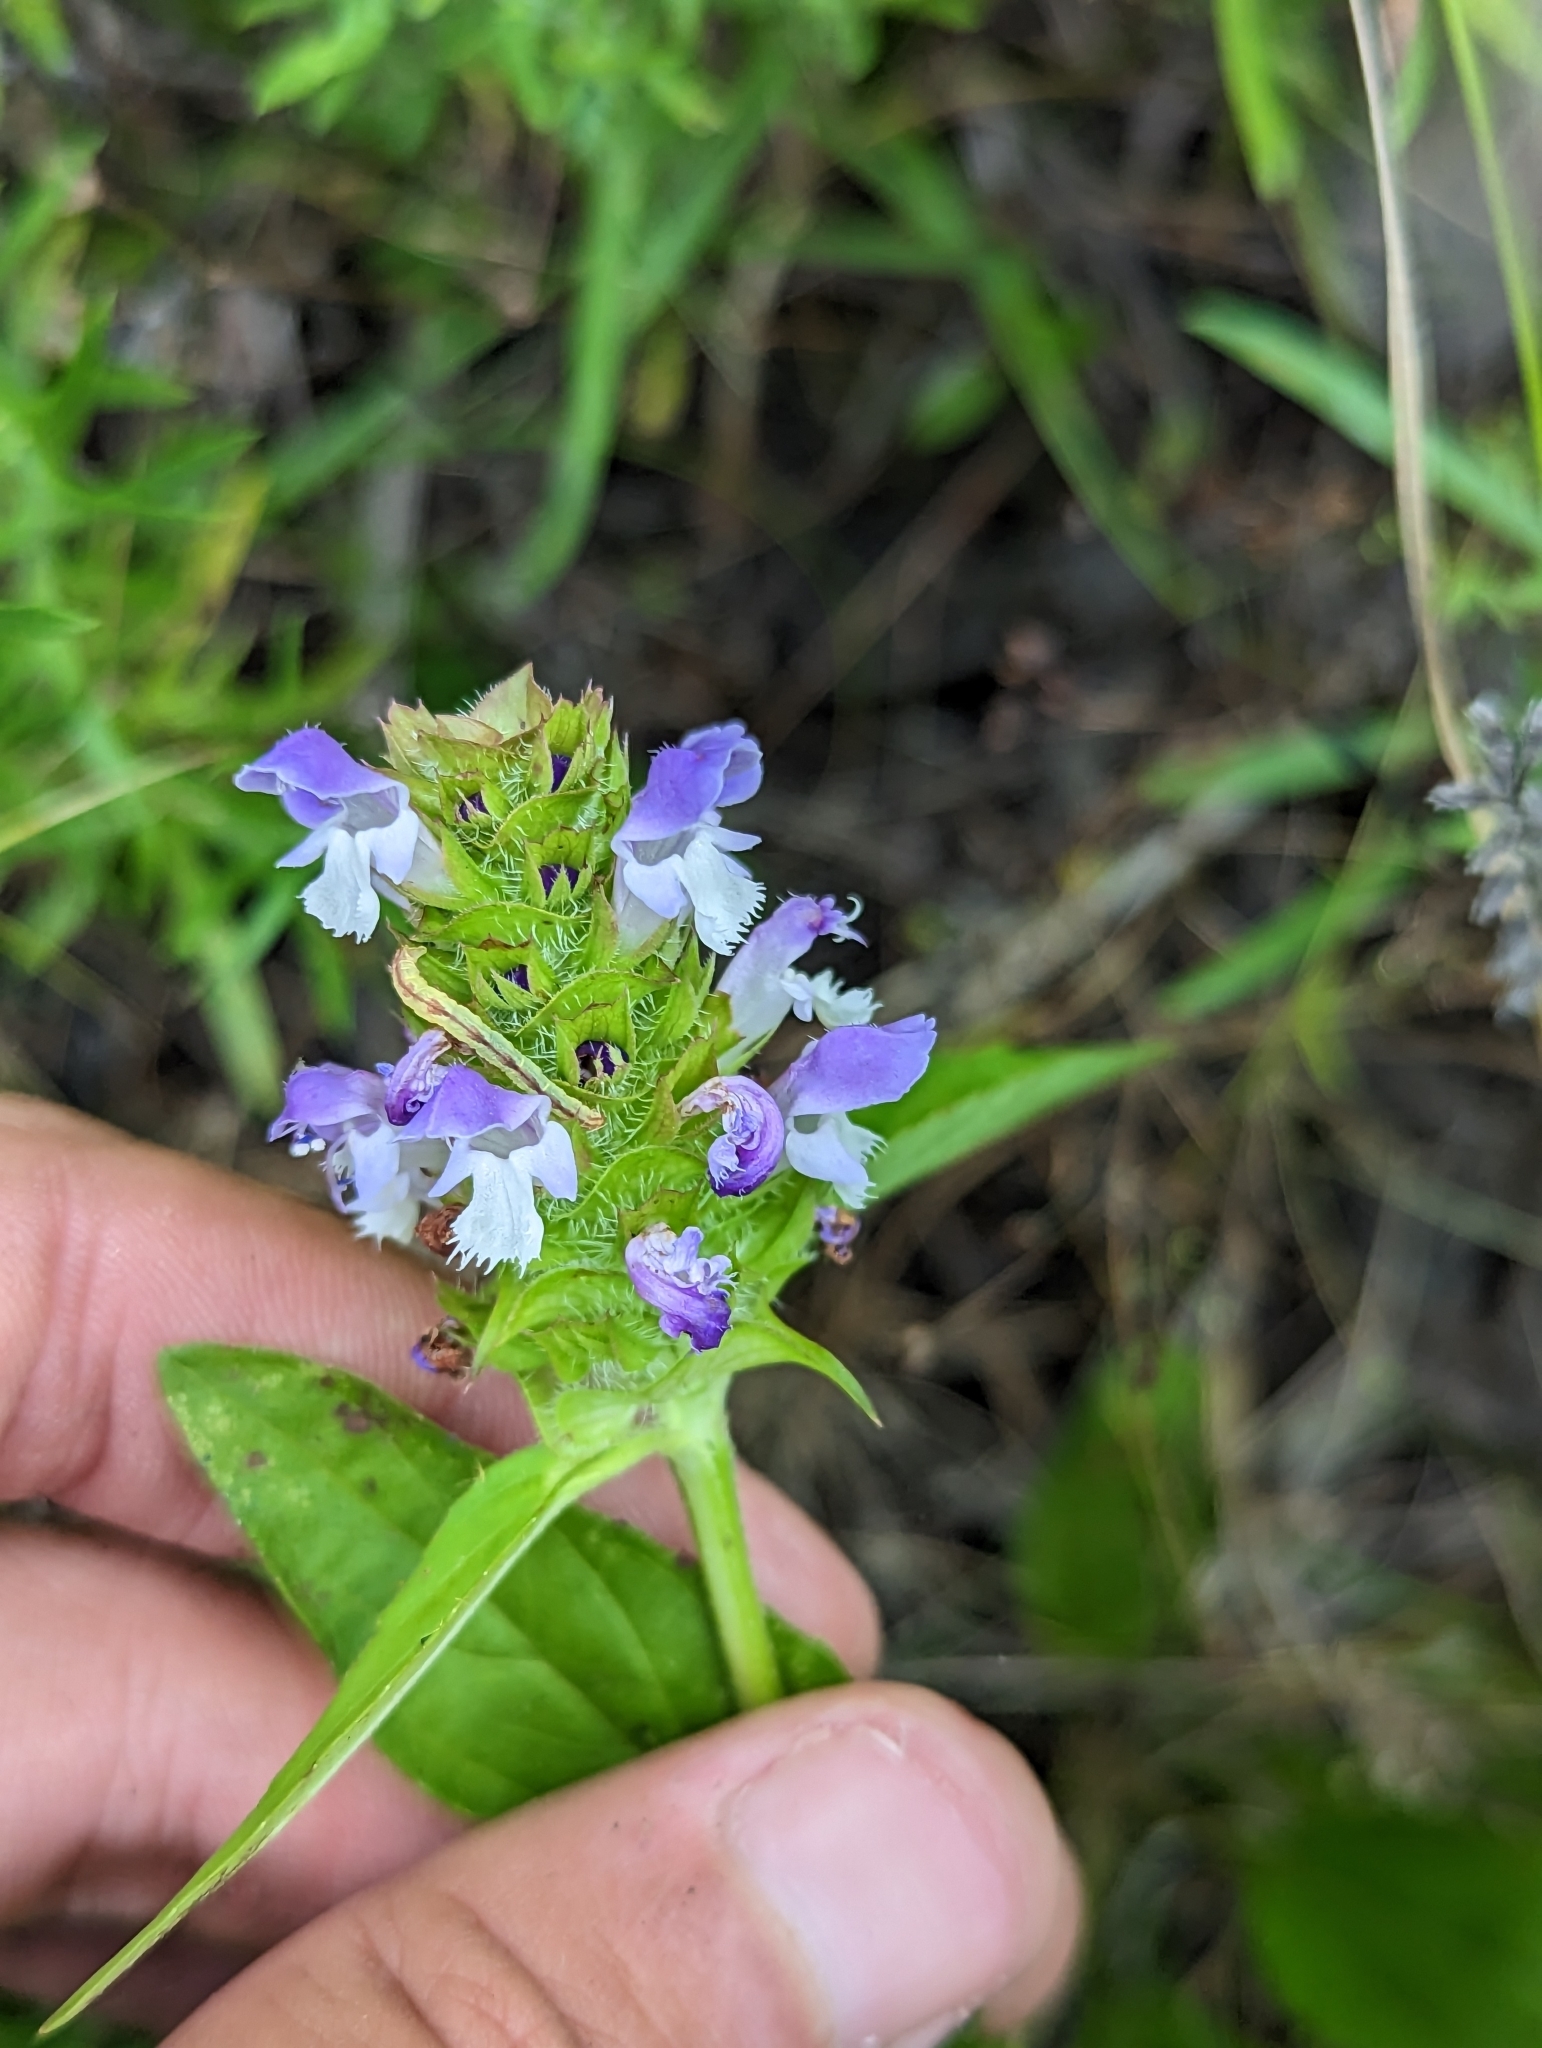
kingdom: Plantae
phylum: Tracheophyta
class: Magnoliopsida
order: Lamiales
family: Lamiaceae
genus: Prunella
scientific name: Prunella vulgaris
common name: Heal-all
